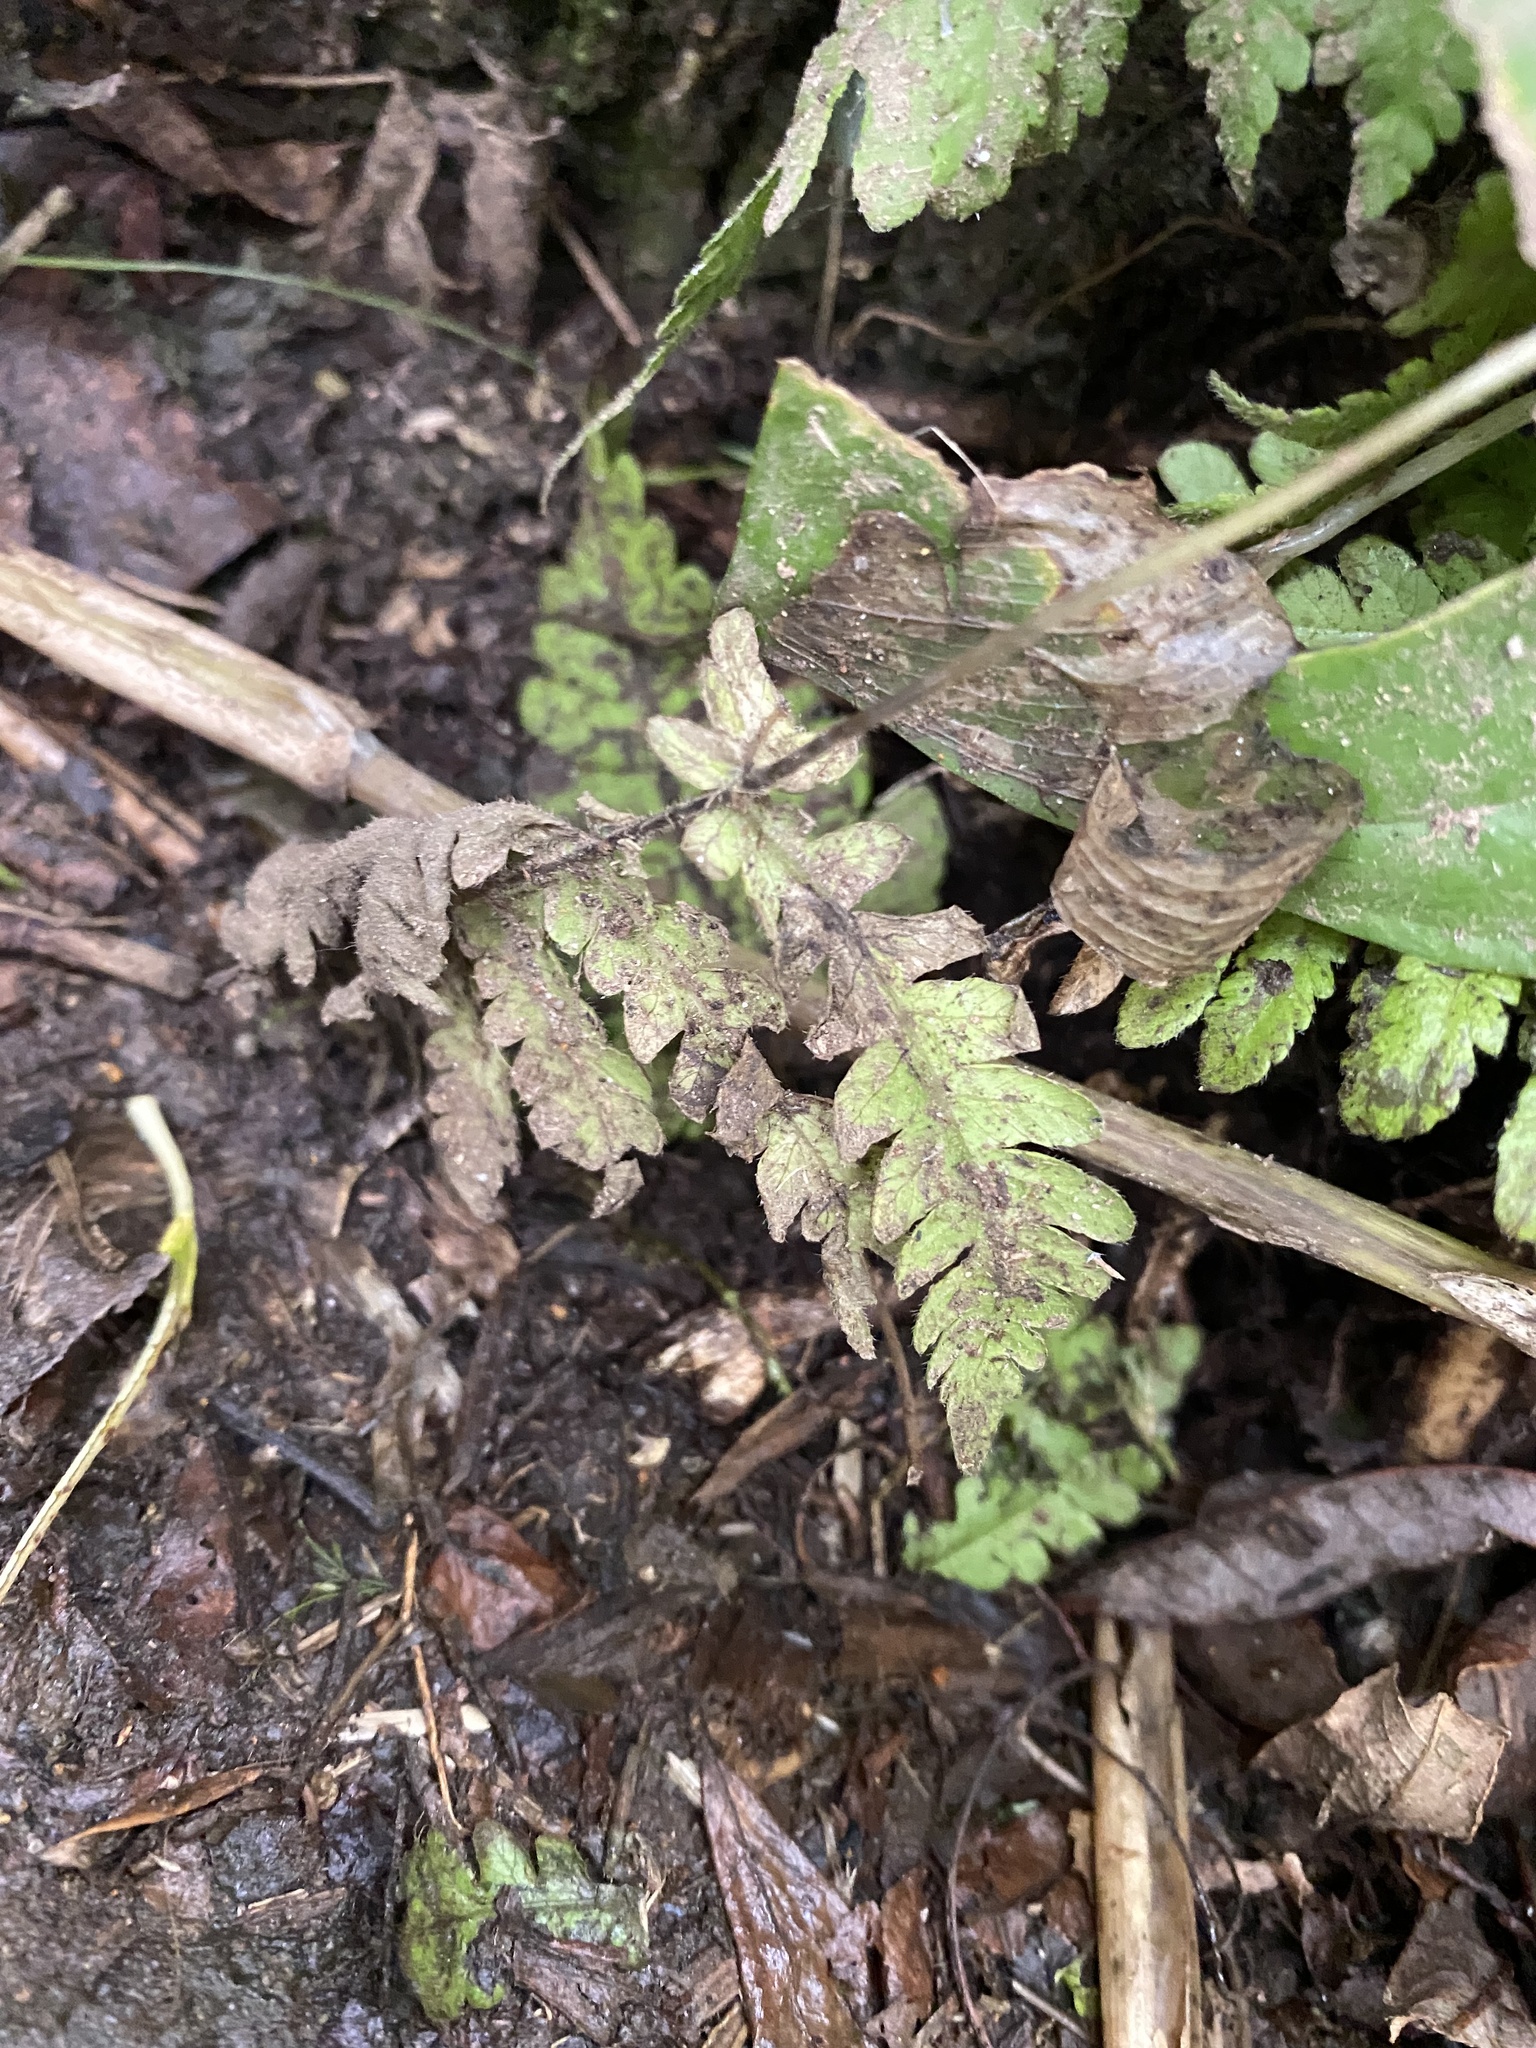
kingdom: Plantae
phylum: Tracheophyta
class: Polypodiopsida
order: Polypodiales
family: Thelypteridaceae
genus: Phegopteris
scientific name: Phegopteris connectilis
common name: Beech fern
